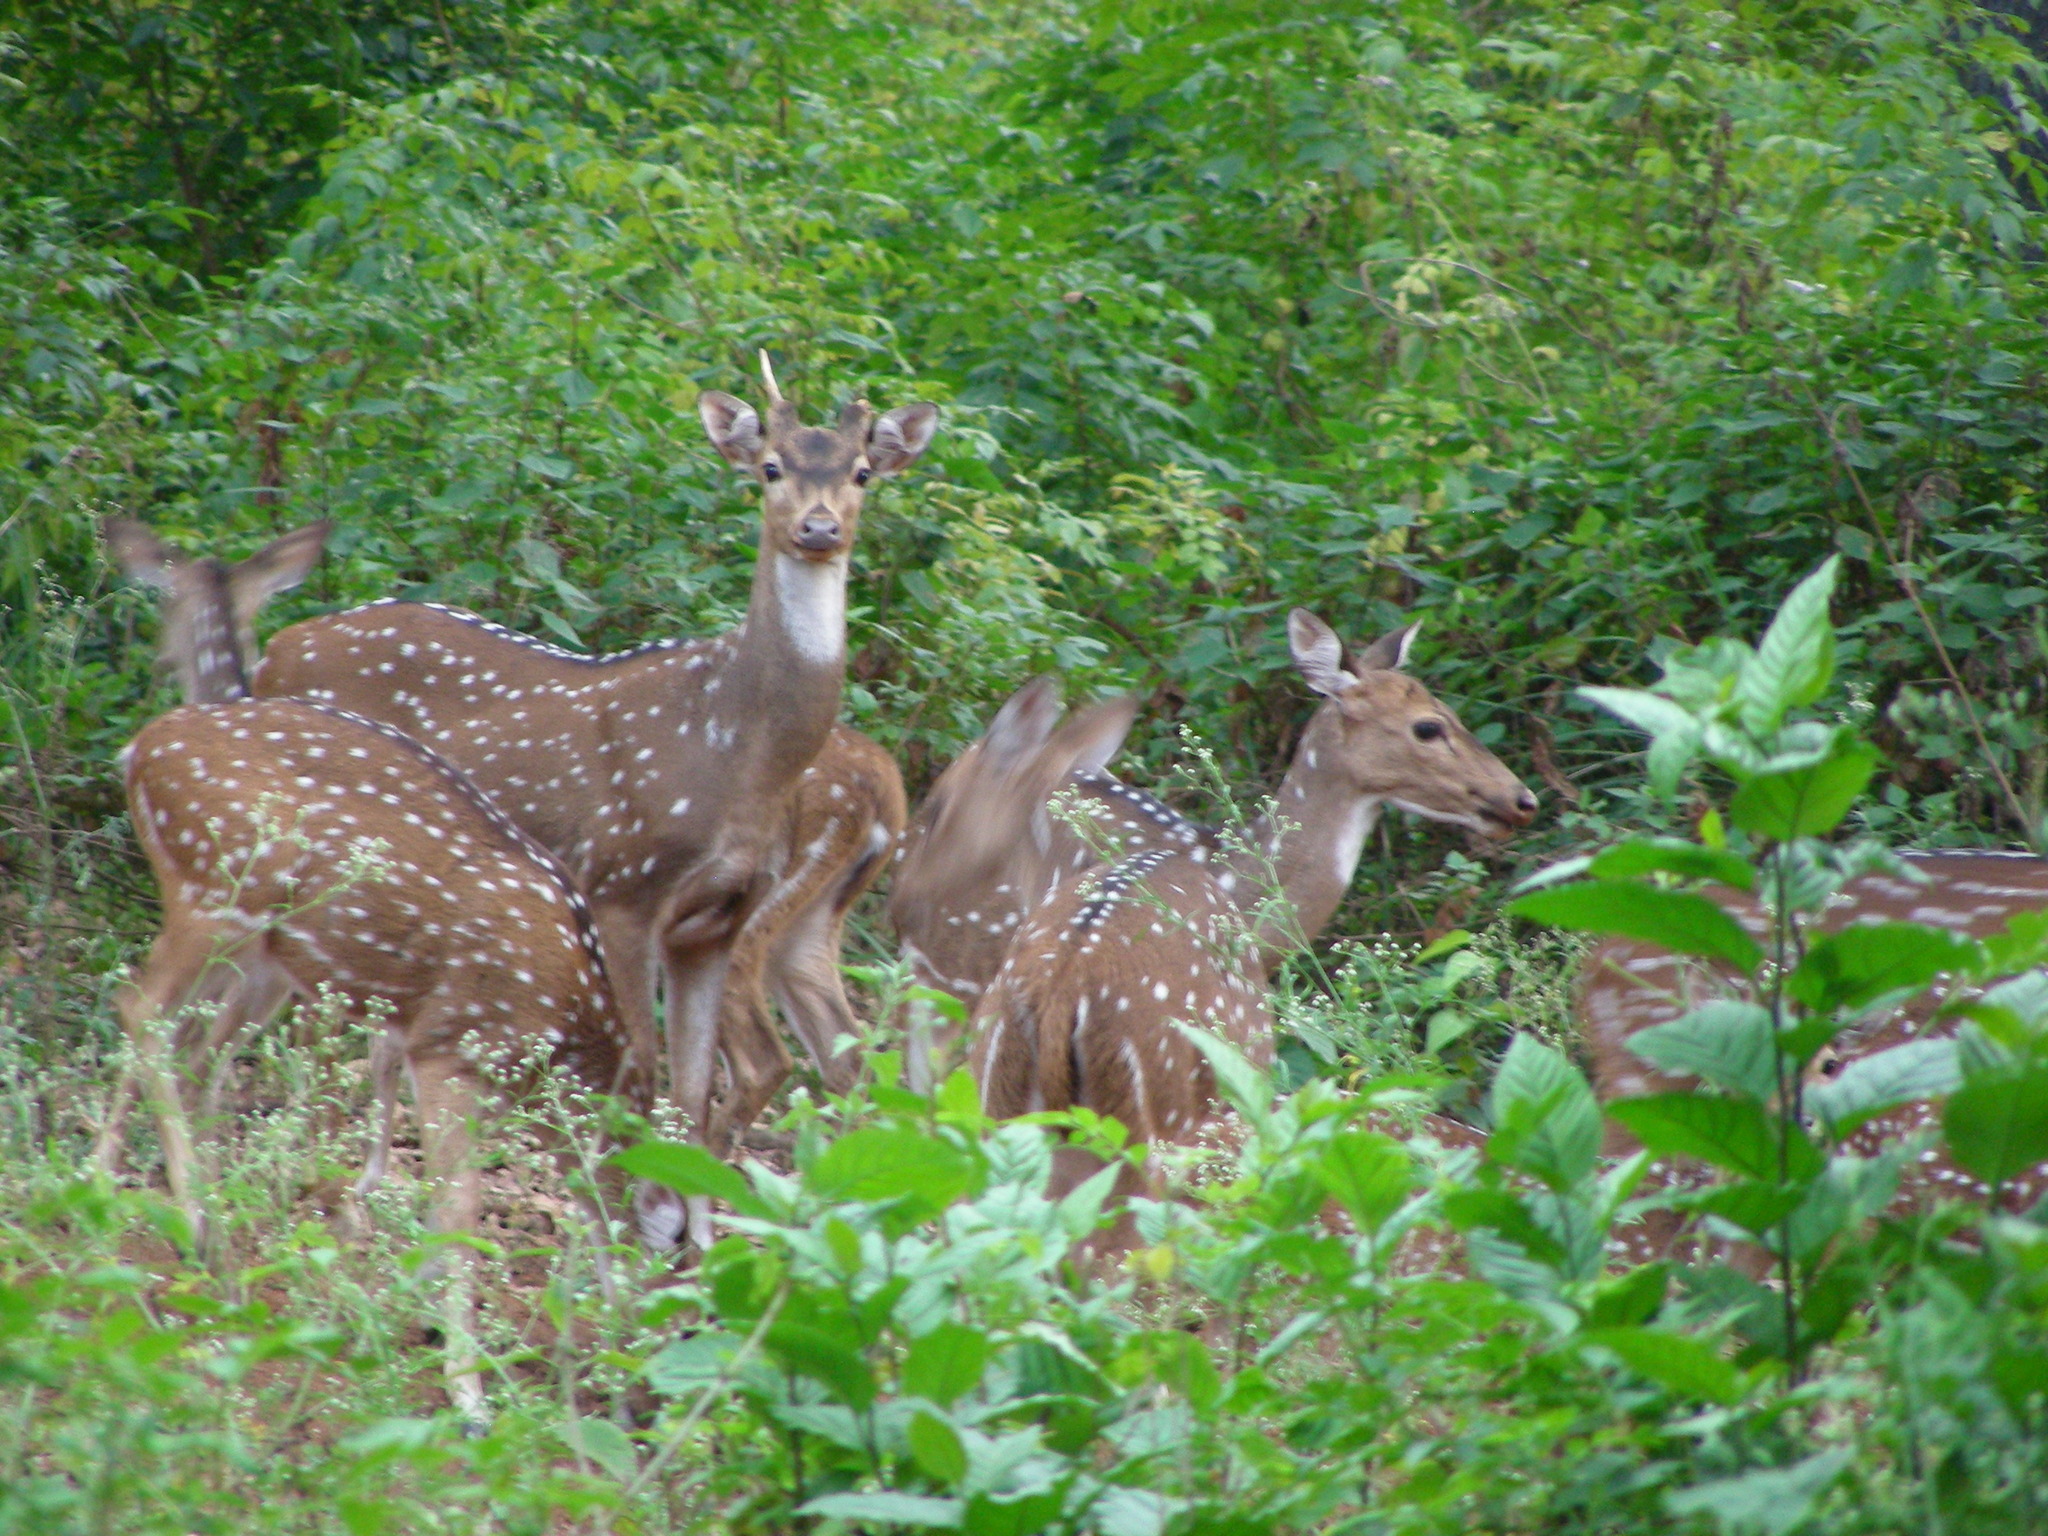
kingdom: Animalia
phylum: Chordata
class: Mammalia
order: Artiodactyla
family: Cervidae
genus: Axis
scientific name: Axis axis
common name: Chital
